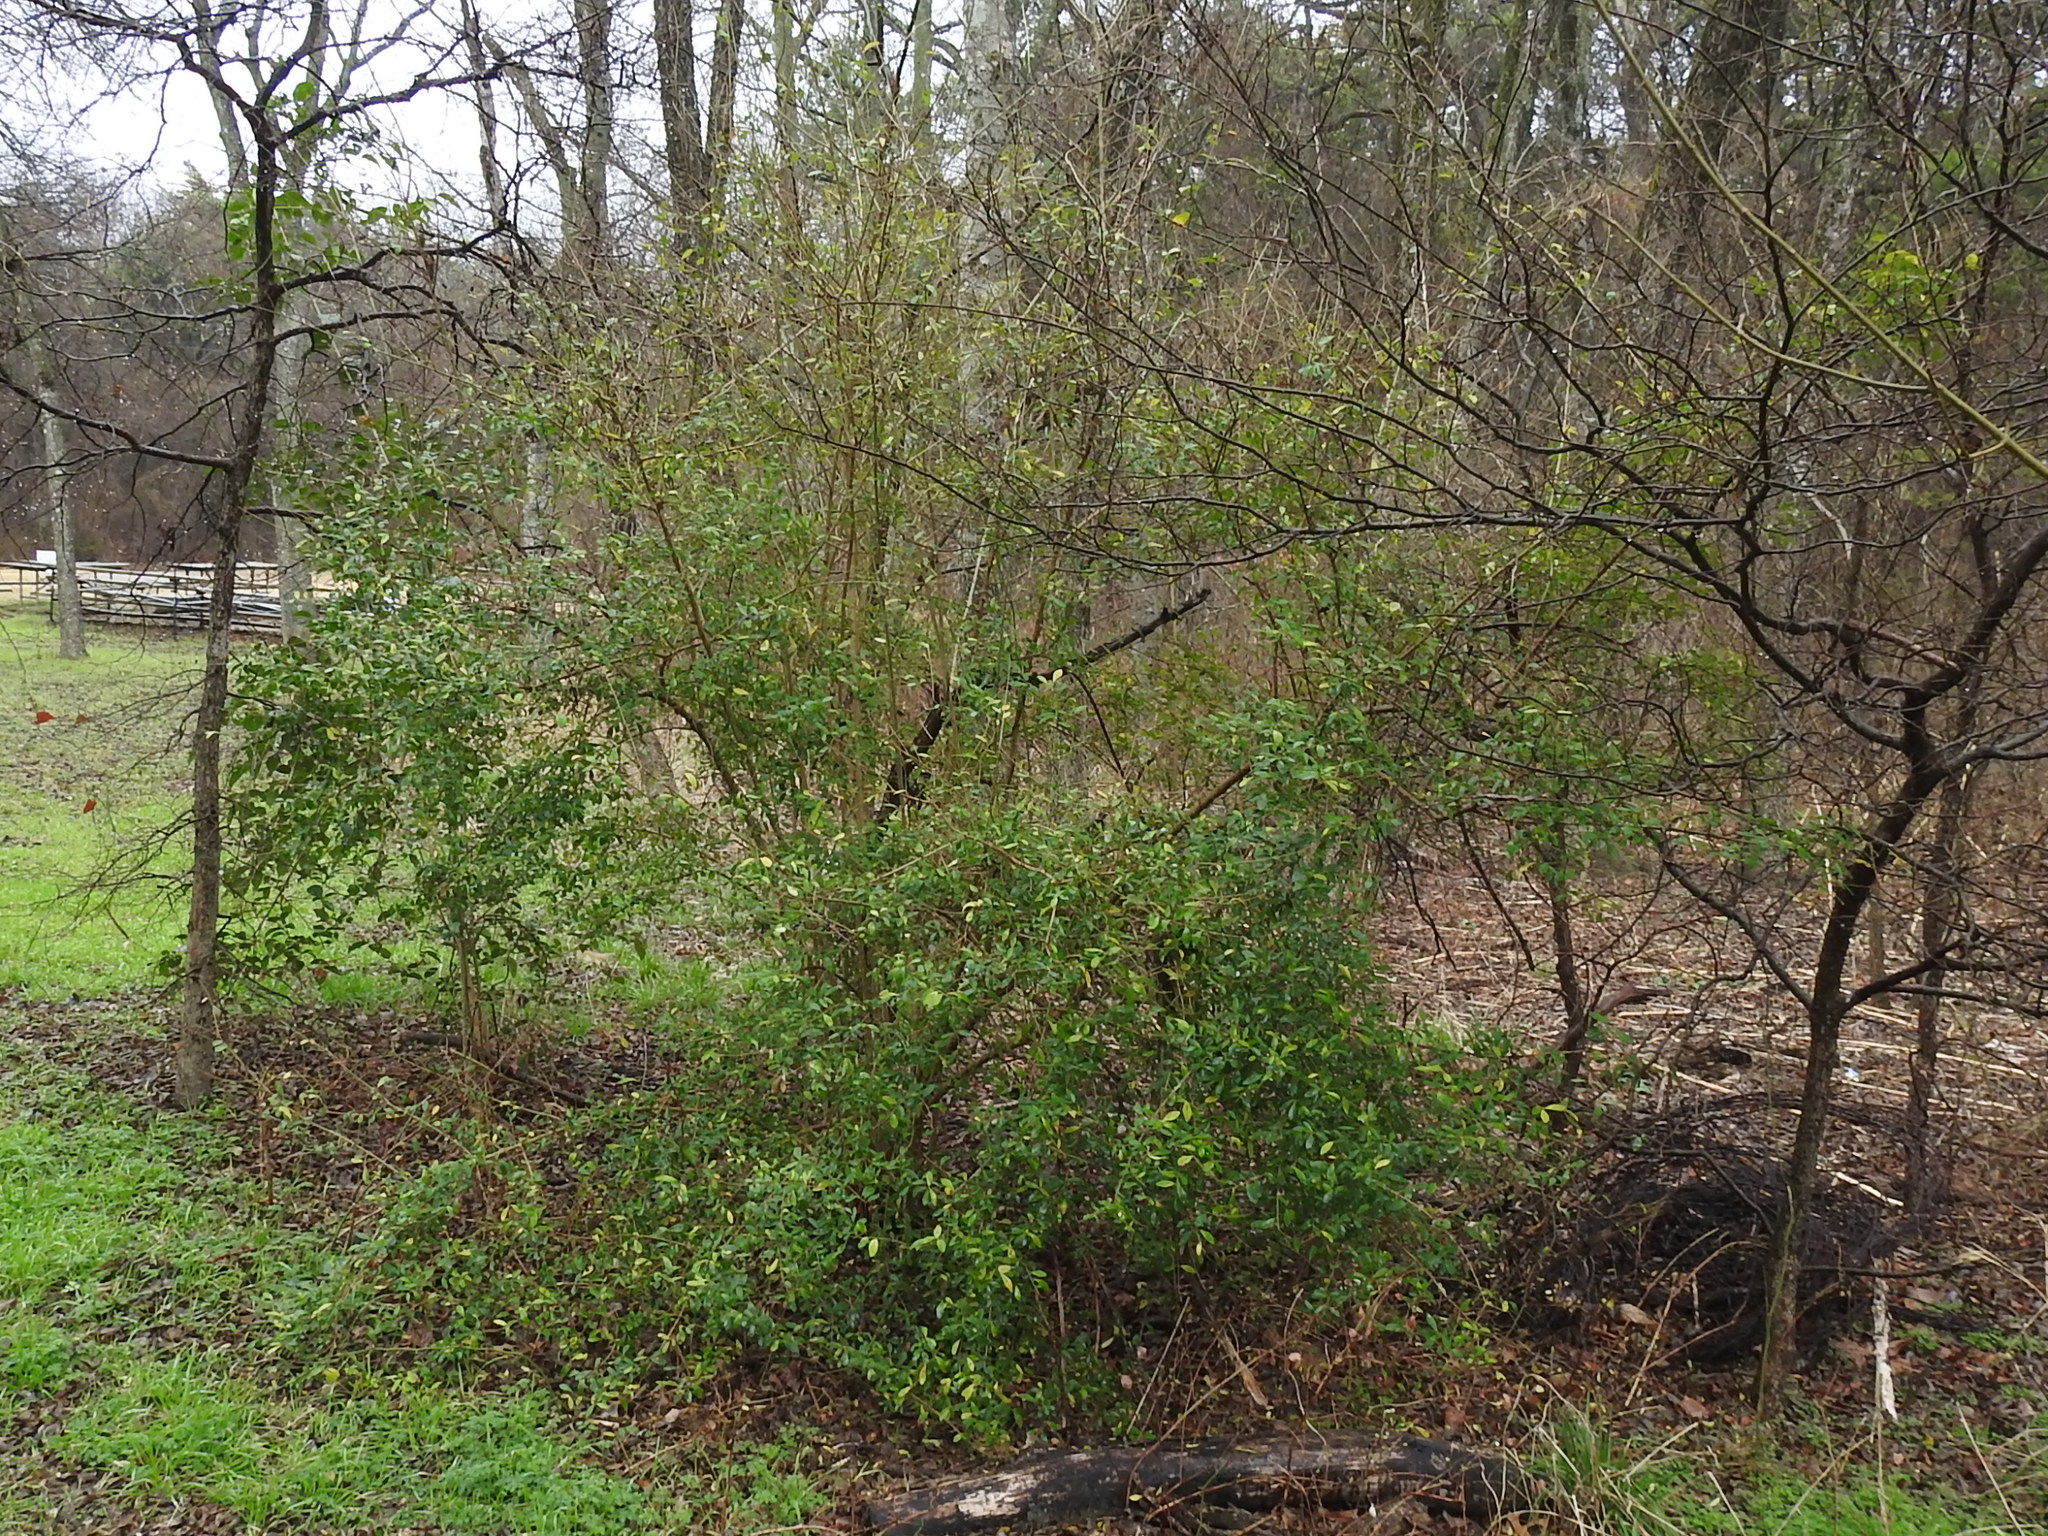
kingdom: Plantae
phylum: Tracheophyta
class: Magnoliopsida
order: Lamiales
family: Oleaceae
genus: Ligustrum
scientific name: Ligustrum quihoui
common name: Waxyleaf privet
